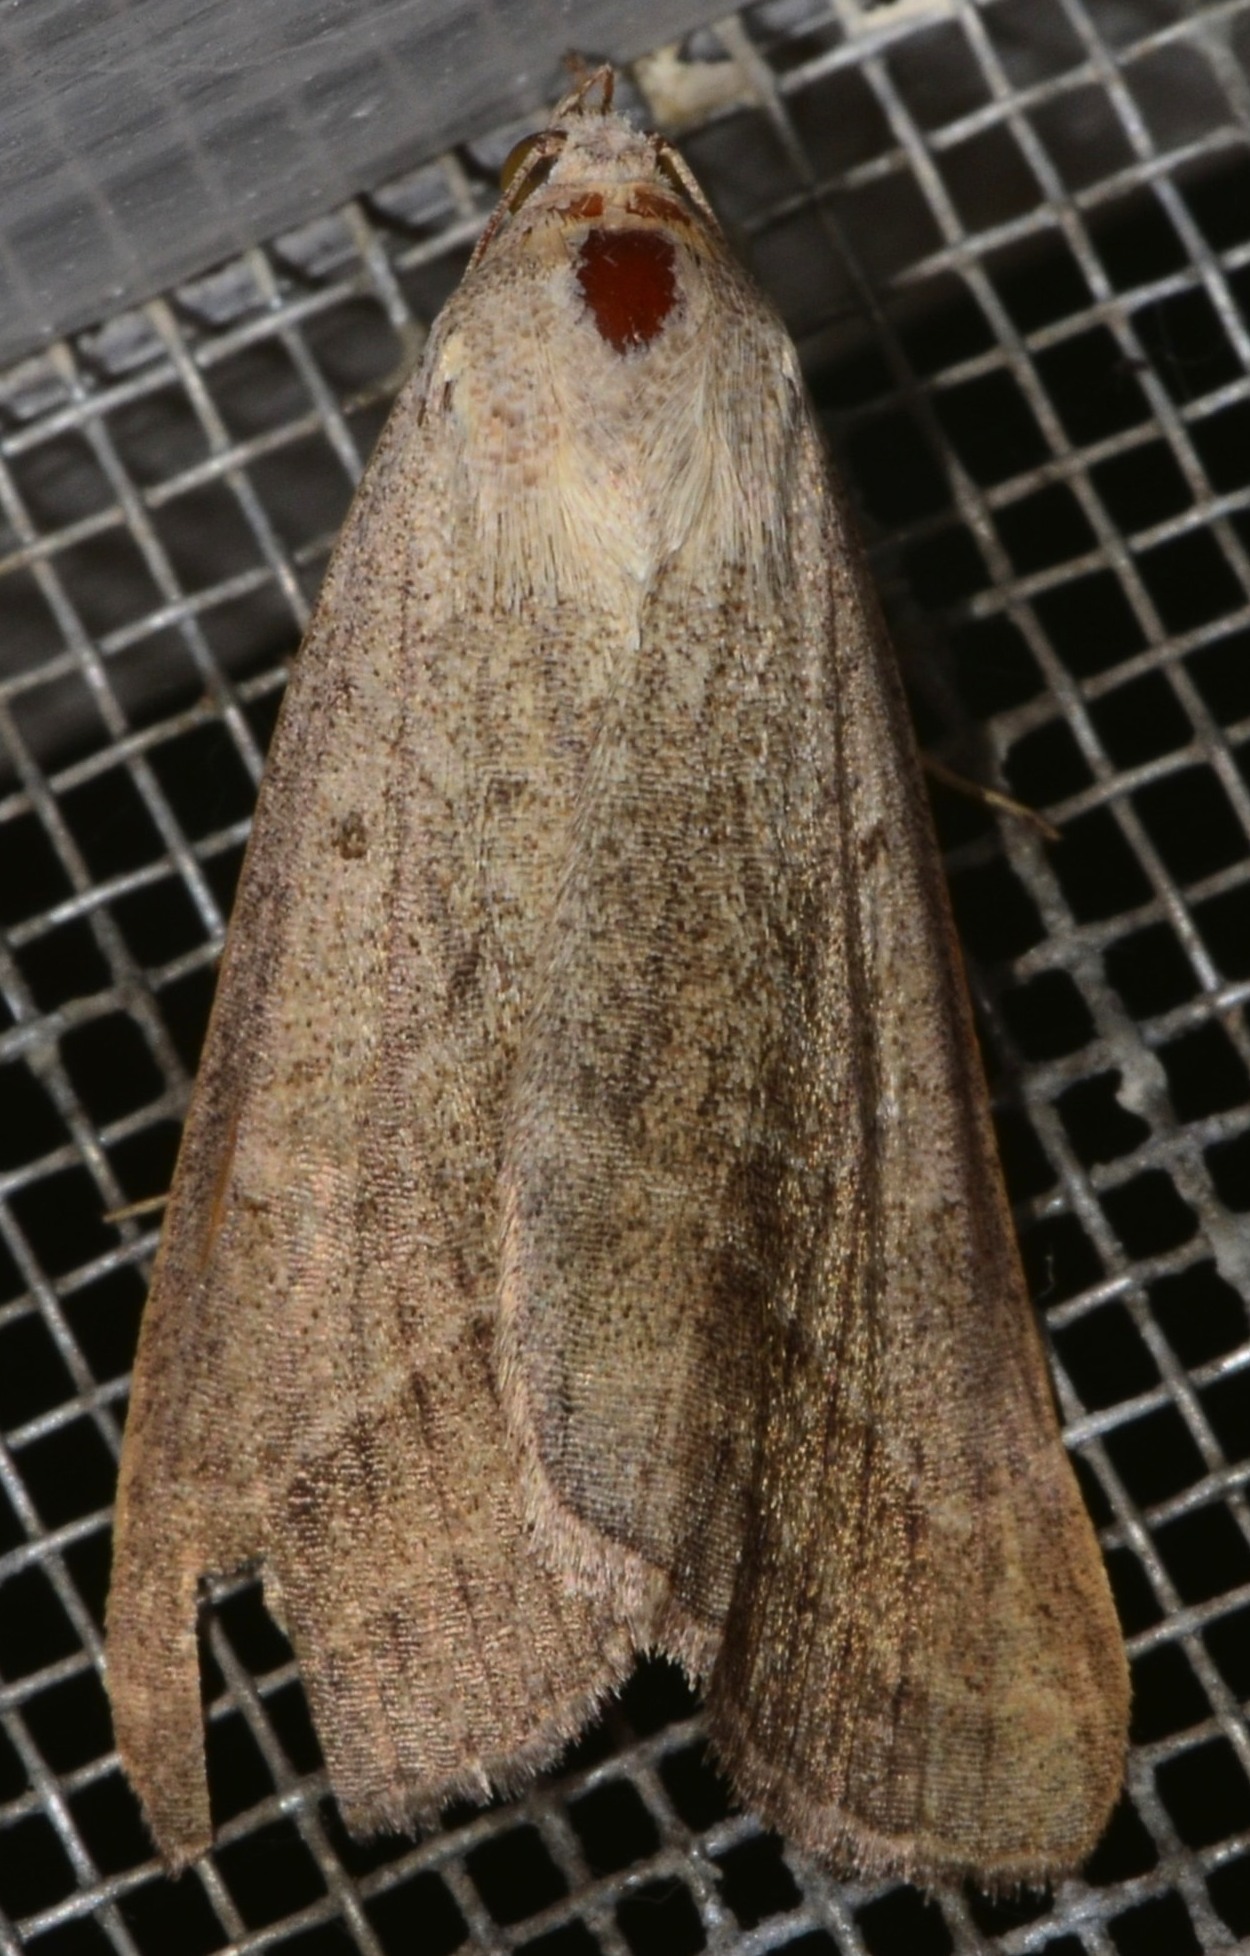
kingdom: Animalia
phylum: Arthropoda
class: Insecta
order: Lepidoptera
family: Erebidae
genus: Caenurgia
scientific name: Caenurgia togataria
